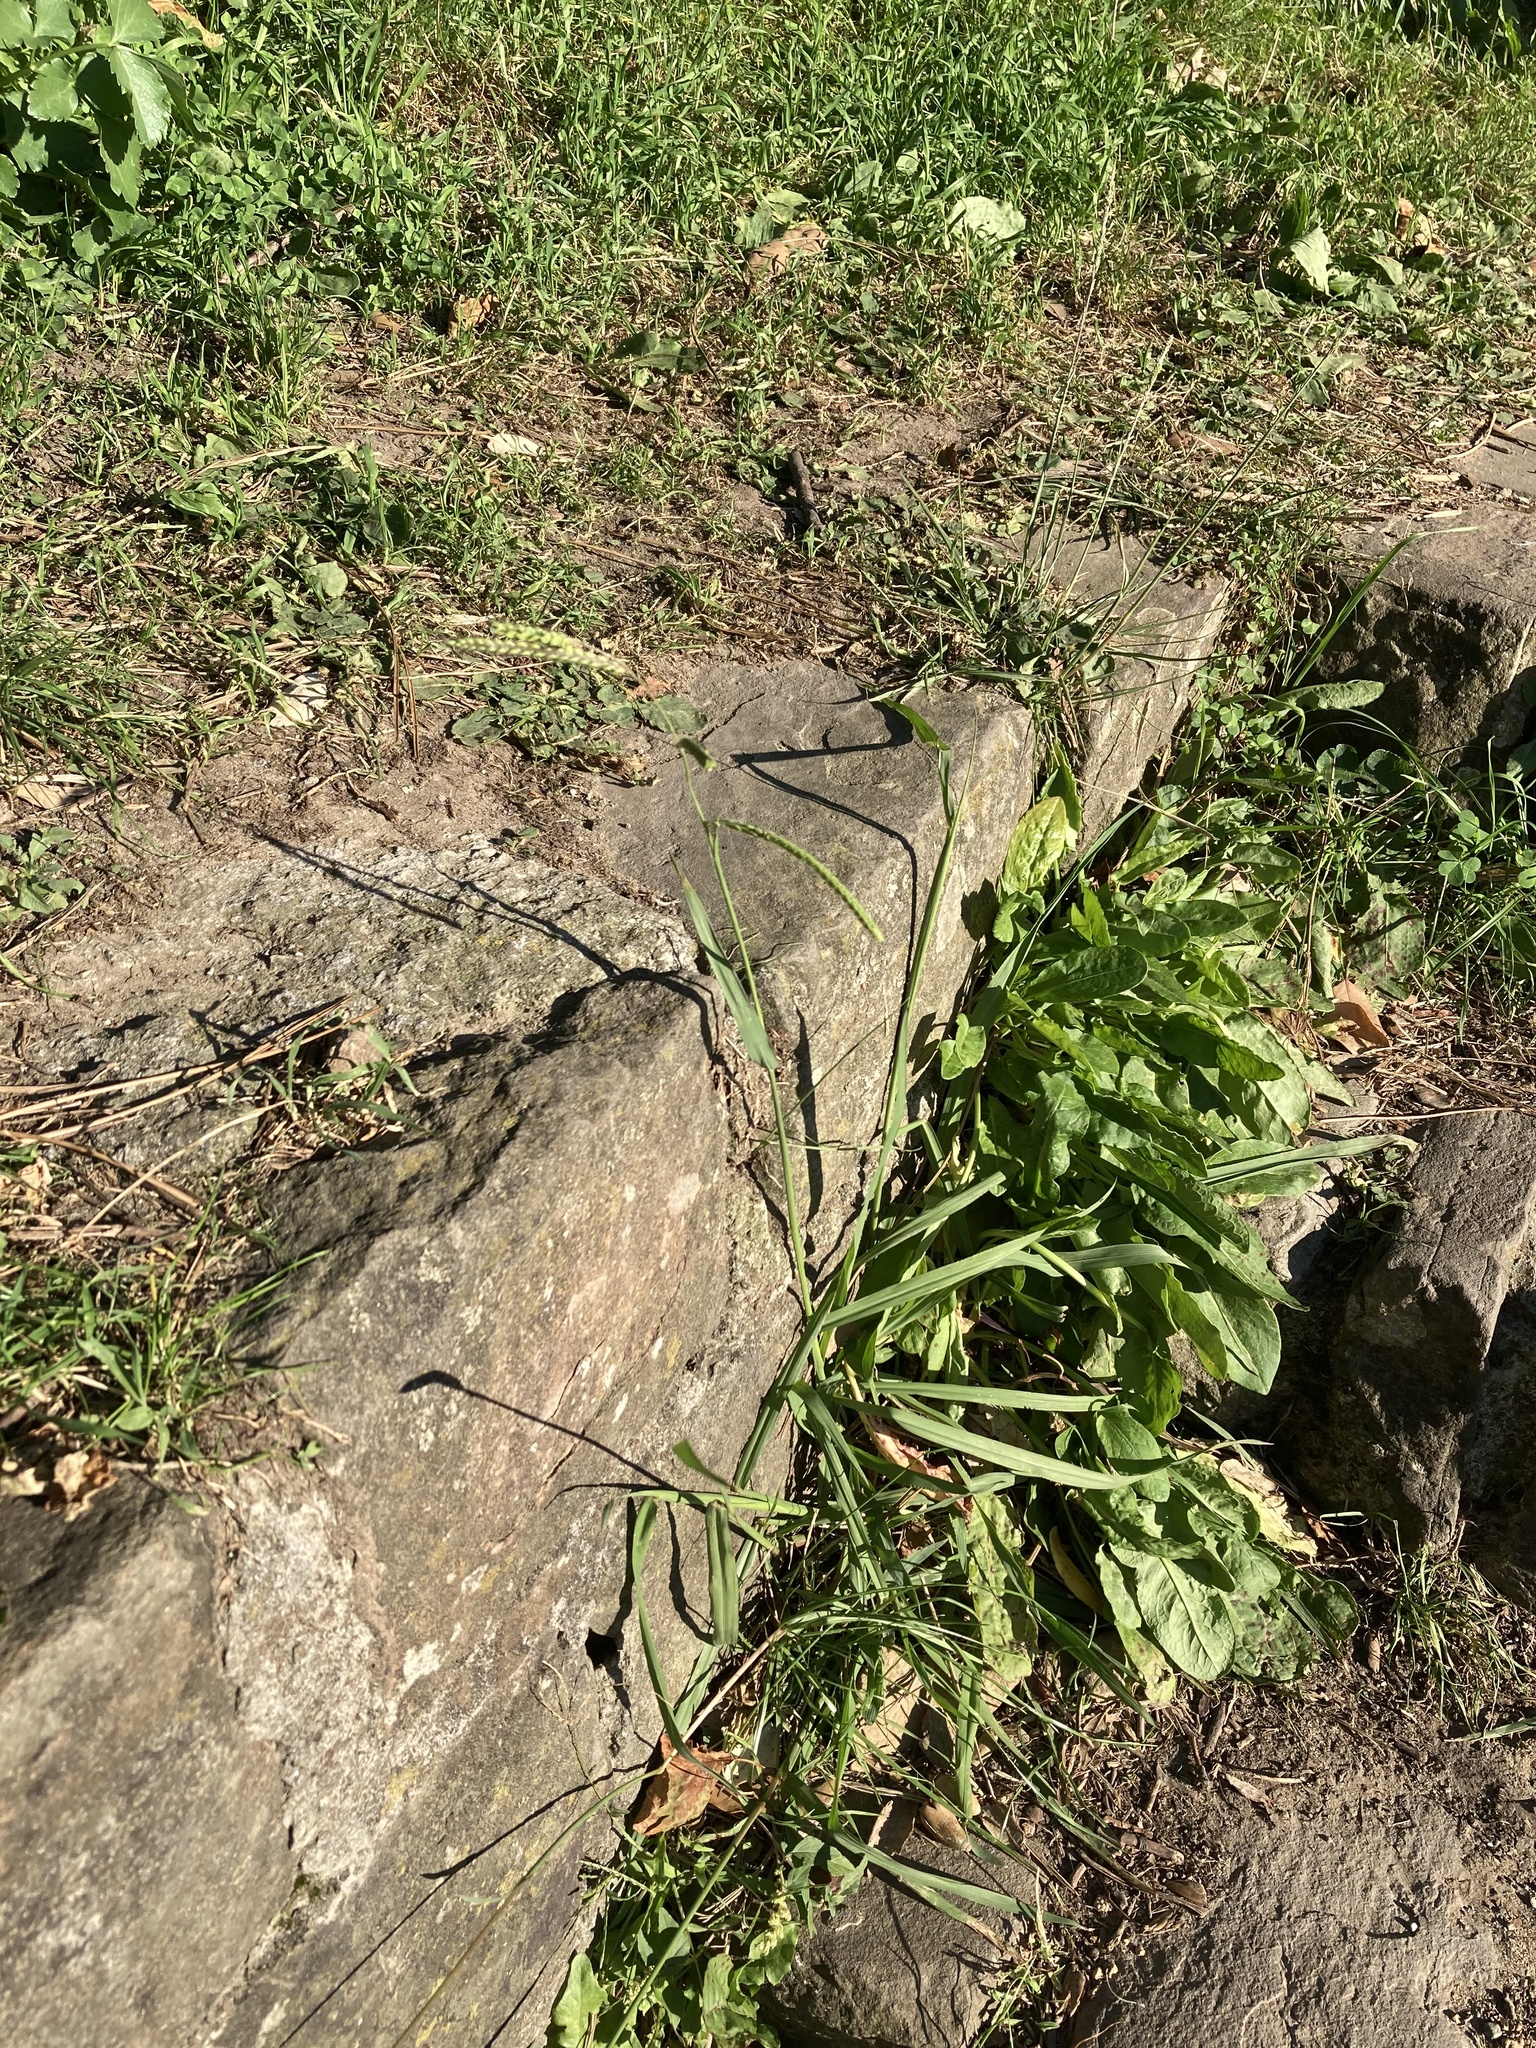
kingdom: Plantae
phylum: Tracheophyta
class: Liliopsida
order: Poales
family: Poaceae
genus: Paspalum
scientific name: Paspalum dilatatum
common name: Dallisgrass
